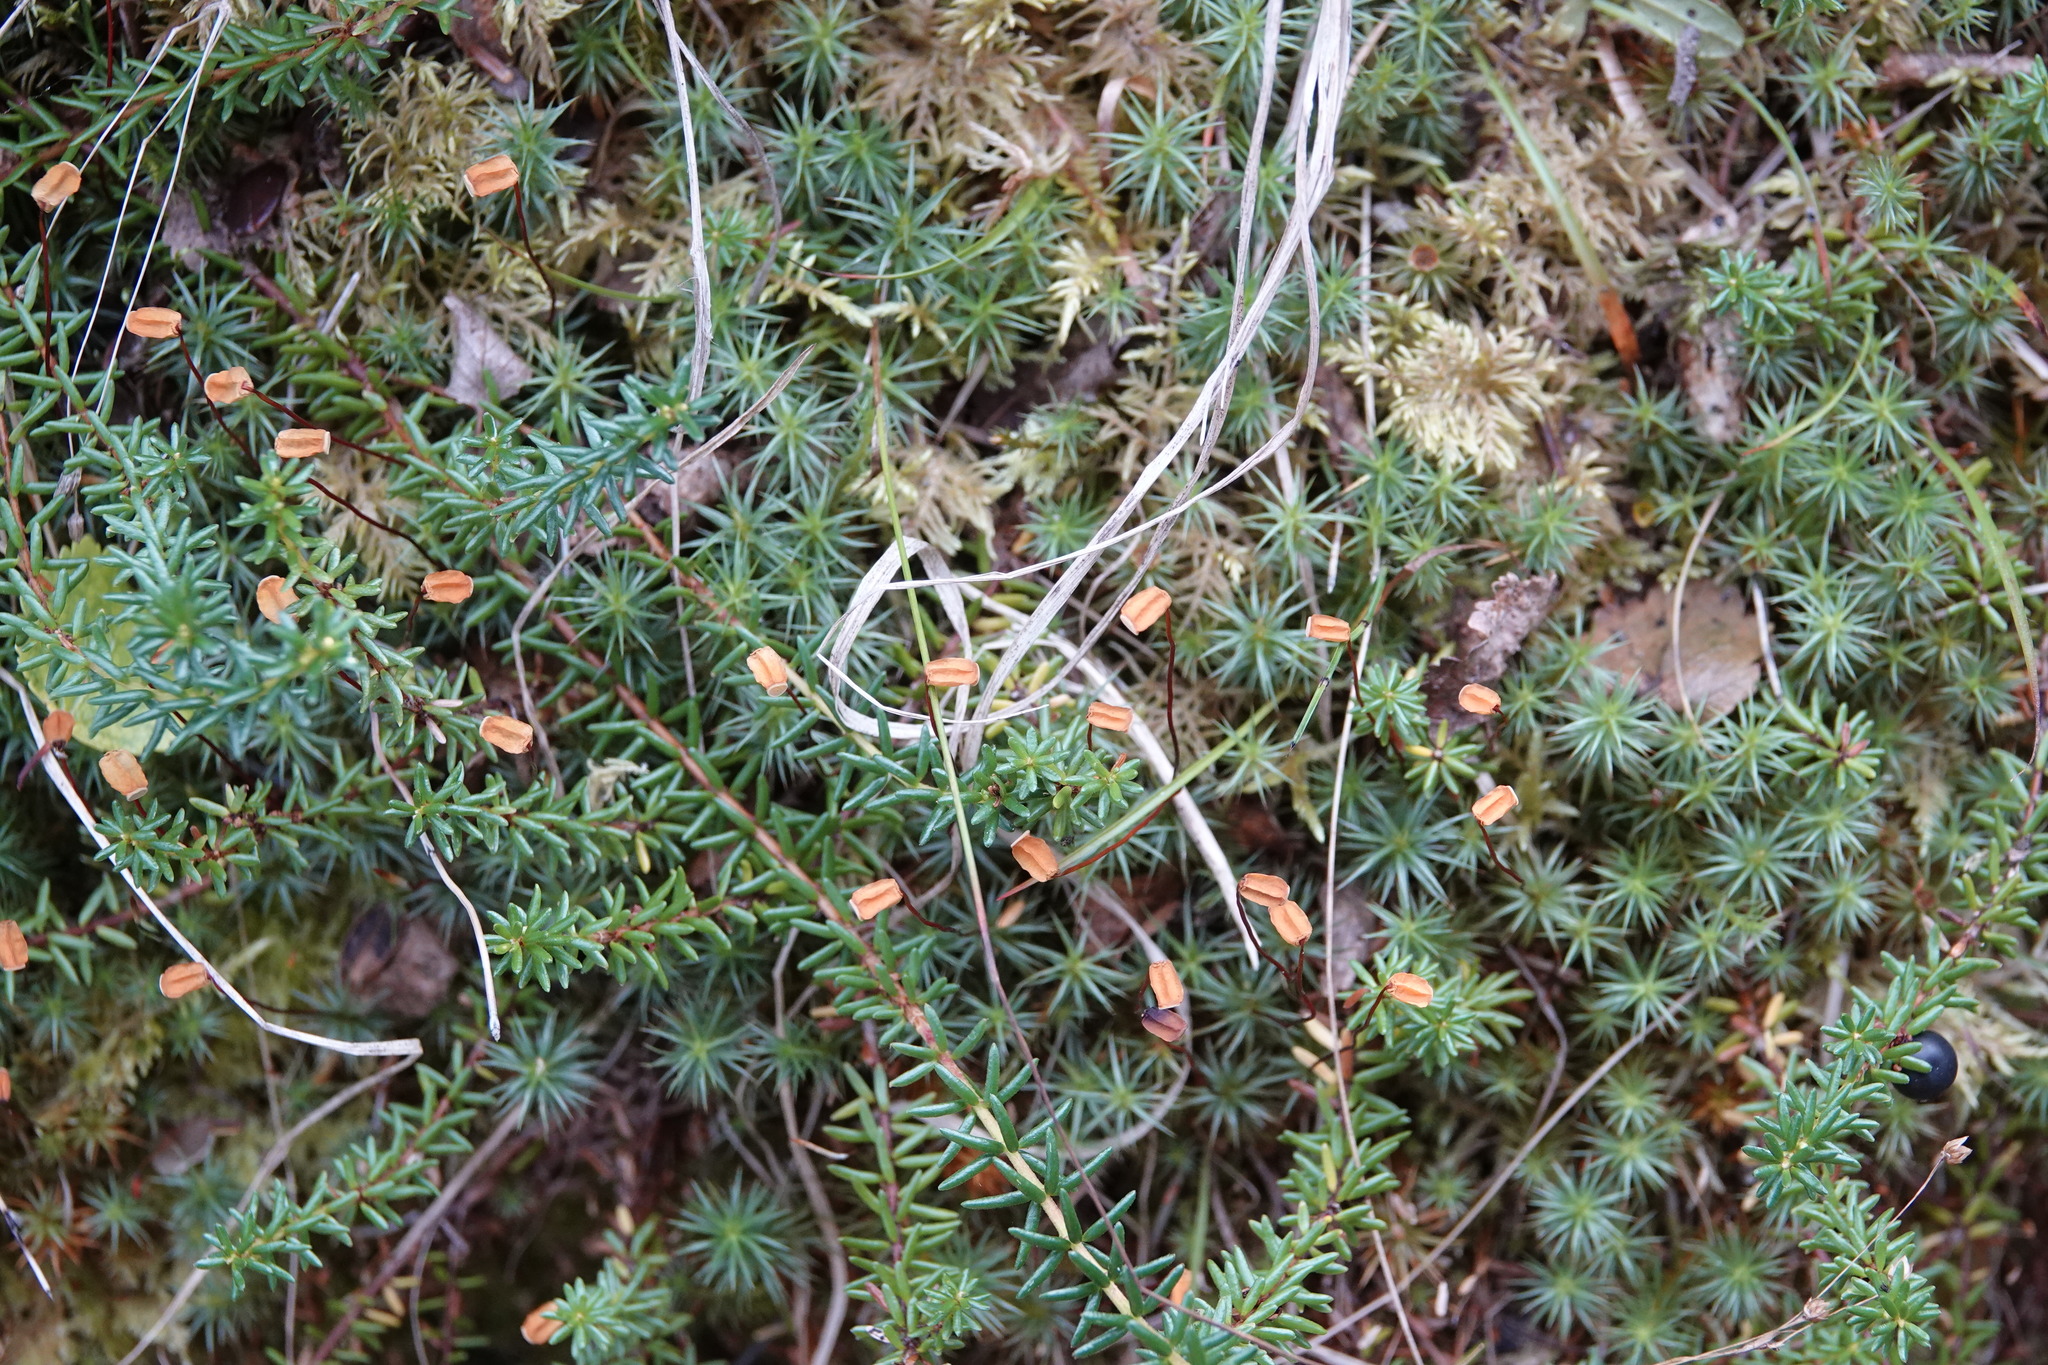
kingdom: Plantae
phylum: Bryophyta
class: Polytrichopsida
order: Polytrichales
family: Polytrichaceae
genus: Polytrichum
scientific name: Polytrichum juniperinum
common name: Juniper haircap moss
